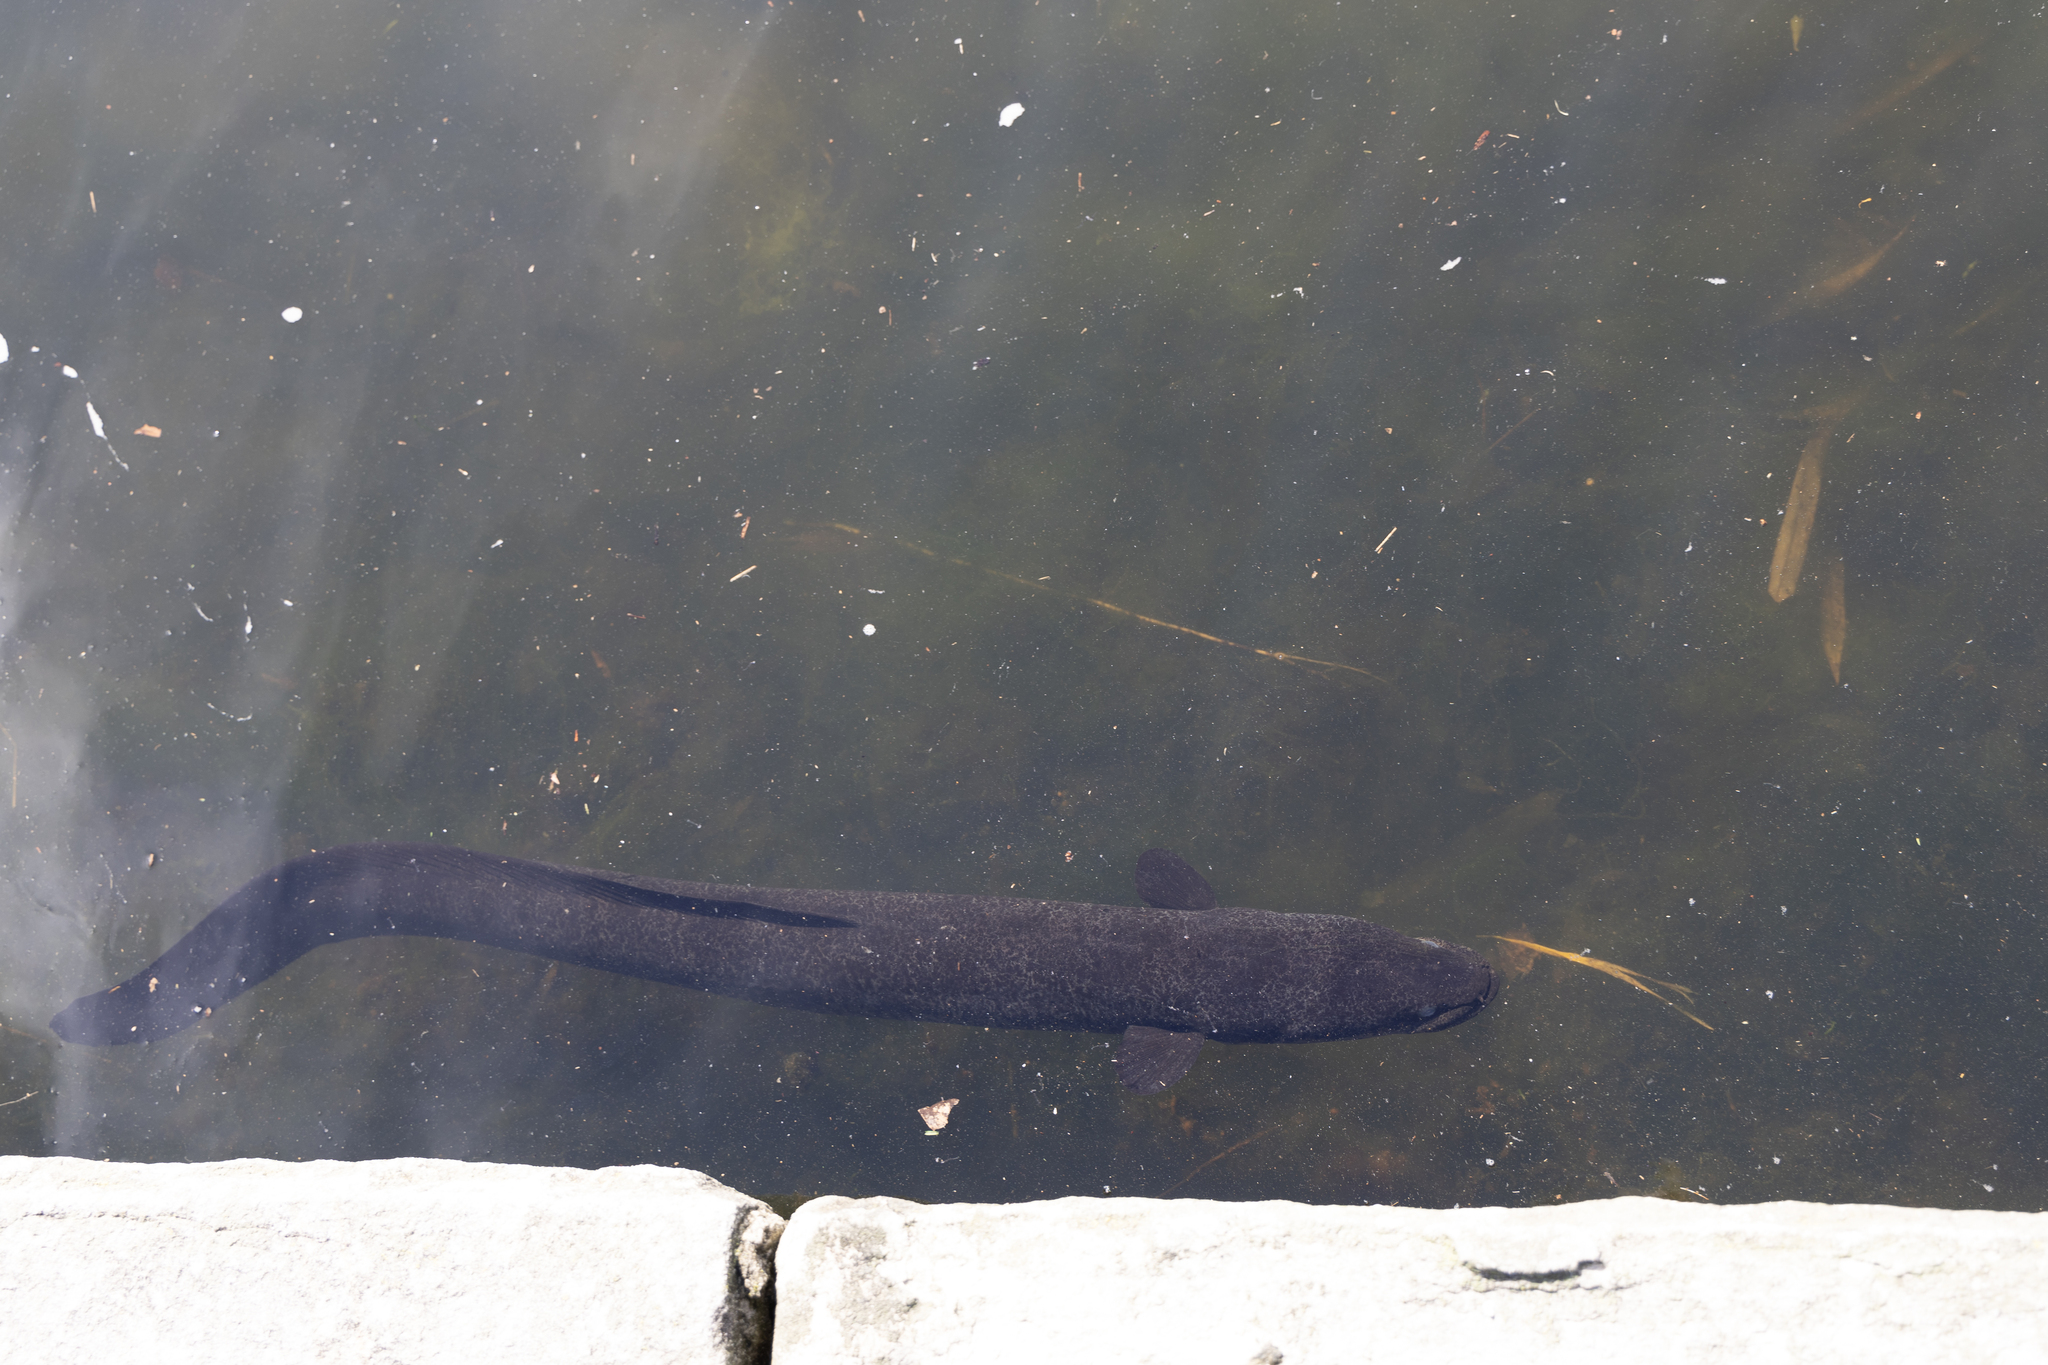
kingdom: Animalia
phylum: Chordata
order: Anguilliformes
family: Anguillidae
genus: Anguilla
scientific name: Anguilla reinhardtii
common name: Longfin eel
